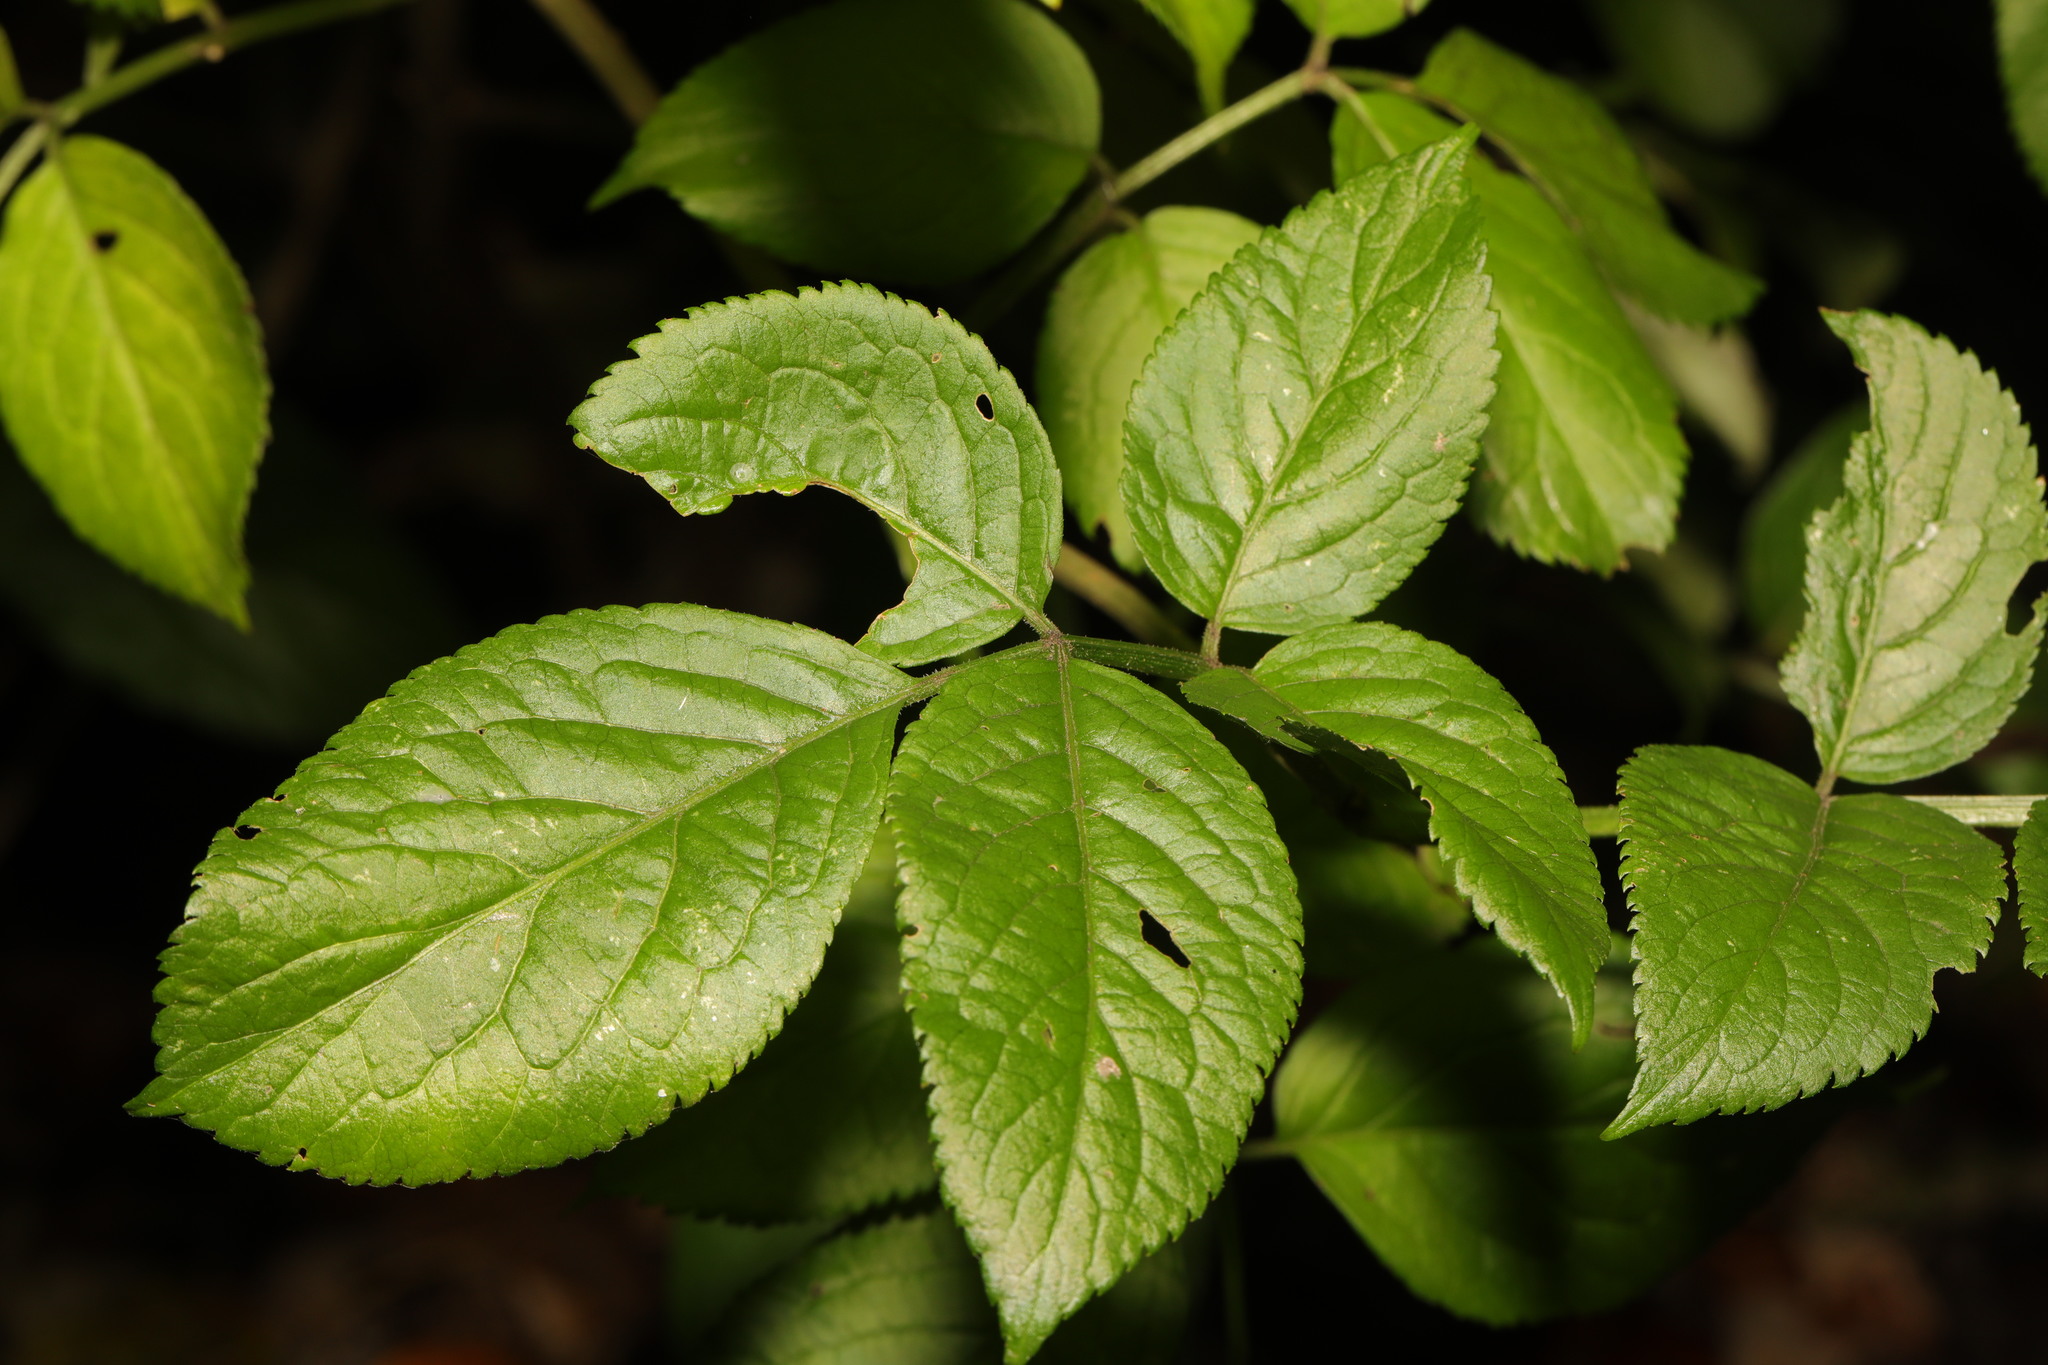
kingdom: Plantae
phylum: Tracheophyta
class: Magnoliopsida
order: Dipsacales
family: Viburnaceae
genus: Sambucus
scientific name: Sambucus nigra
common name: Elder
